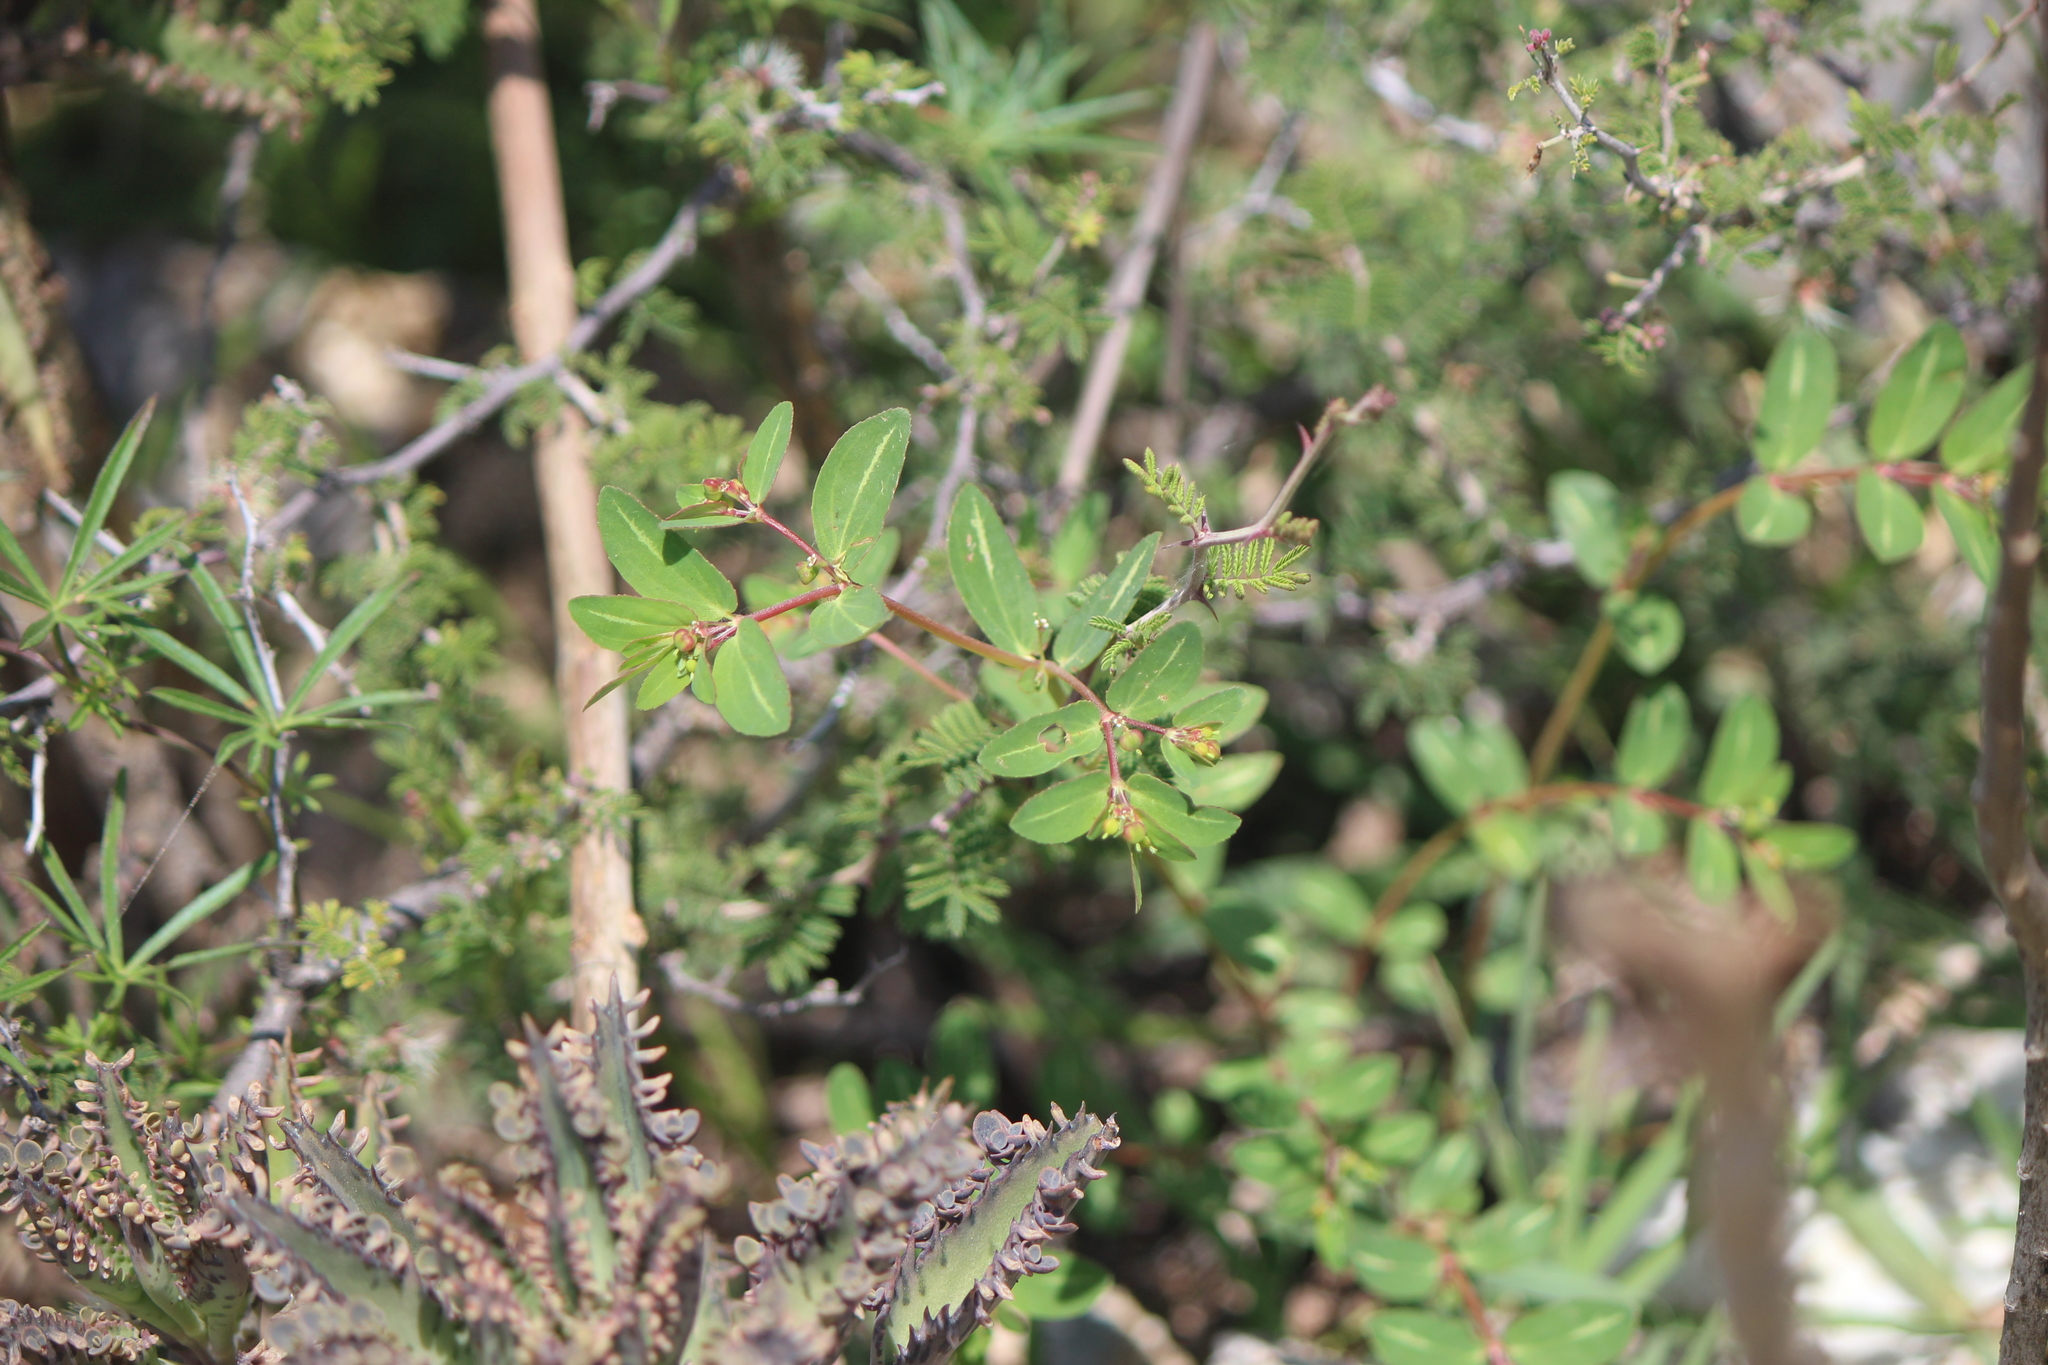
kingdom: Plantae
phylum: Tracheophyta
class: Magnoliopsida
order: Malpighiales
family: Euphorbiaceae
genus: Euphorbia
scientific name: Euphorbia nutans
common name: Eyebane
